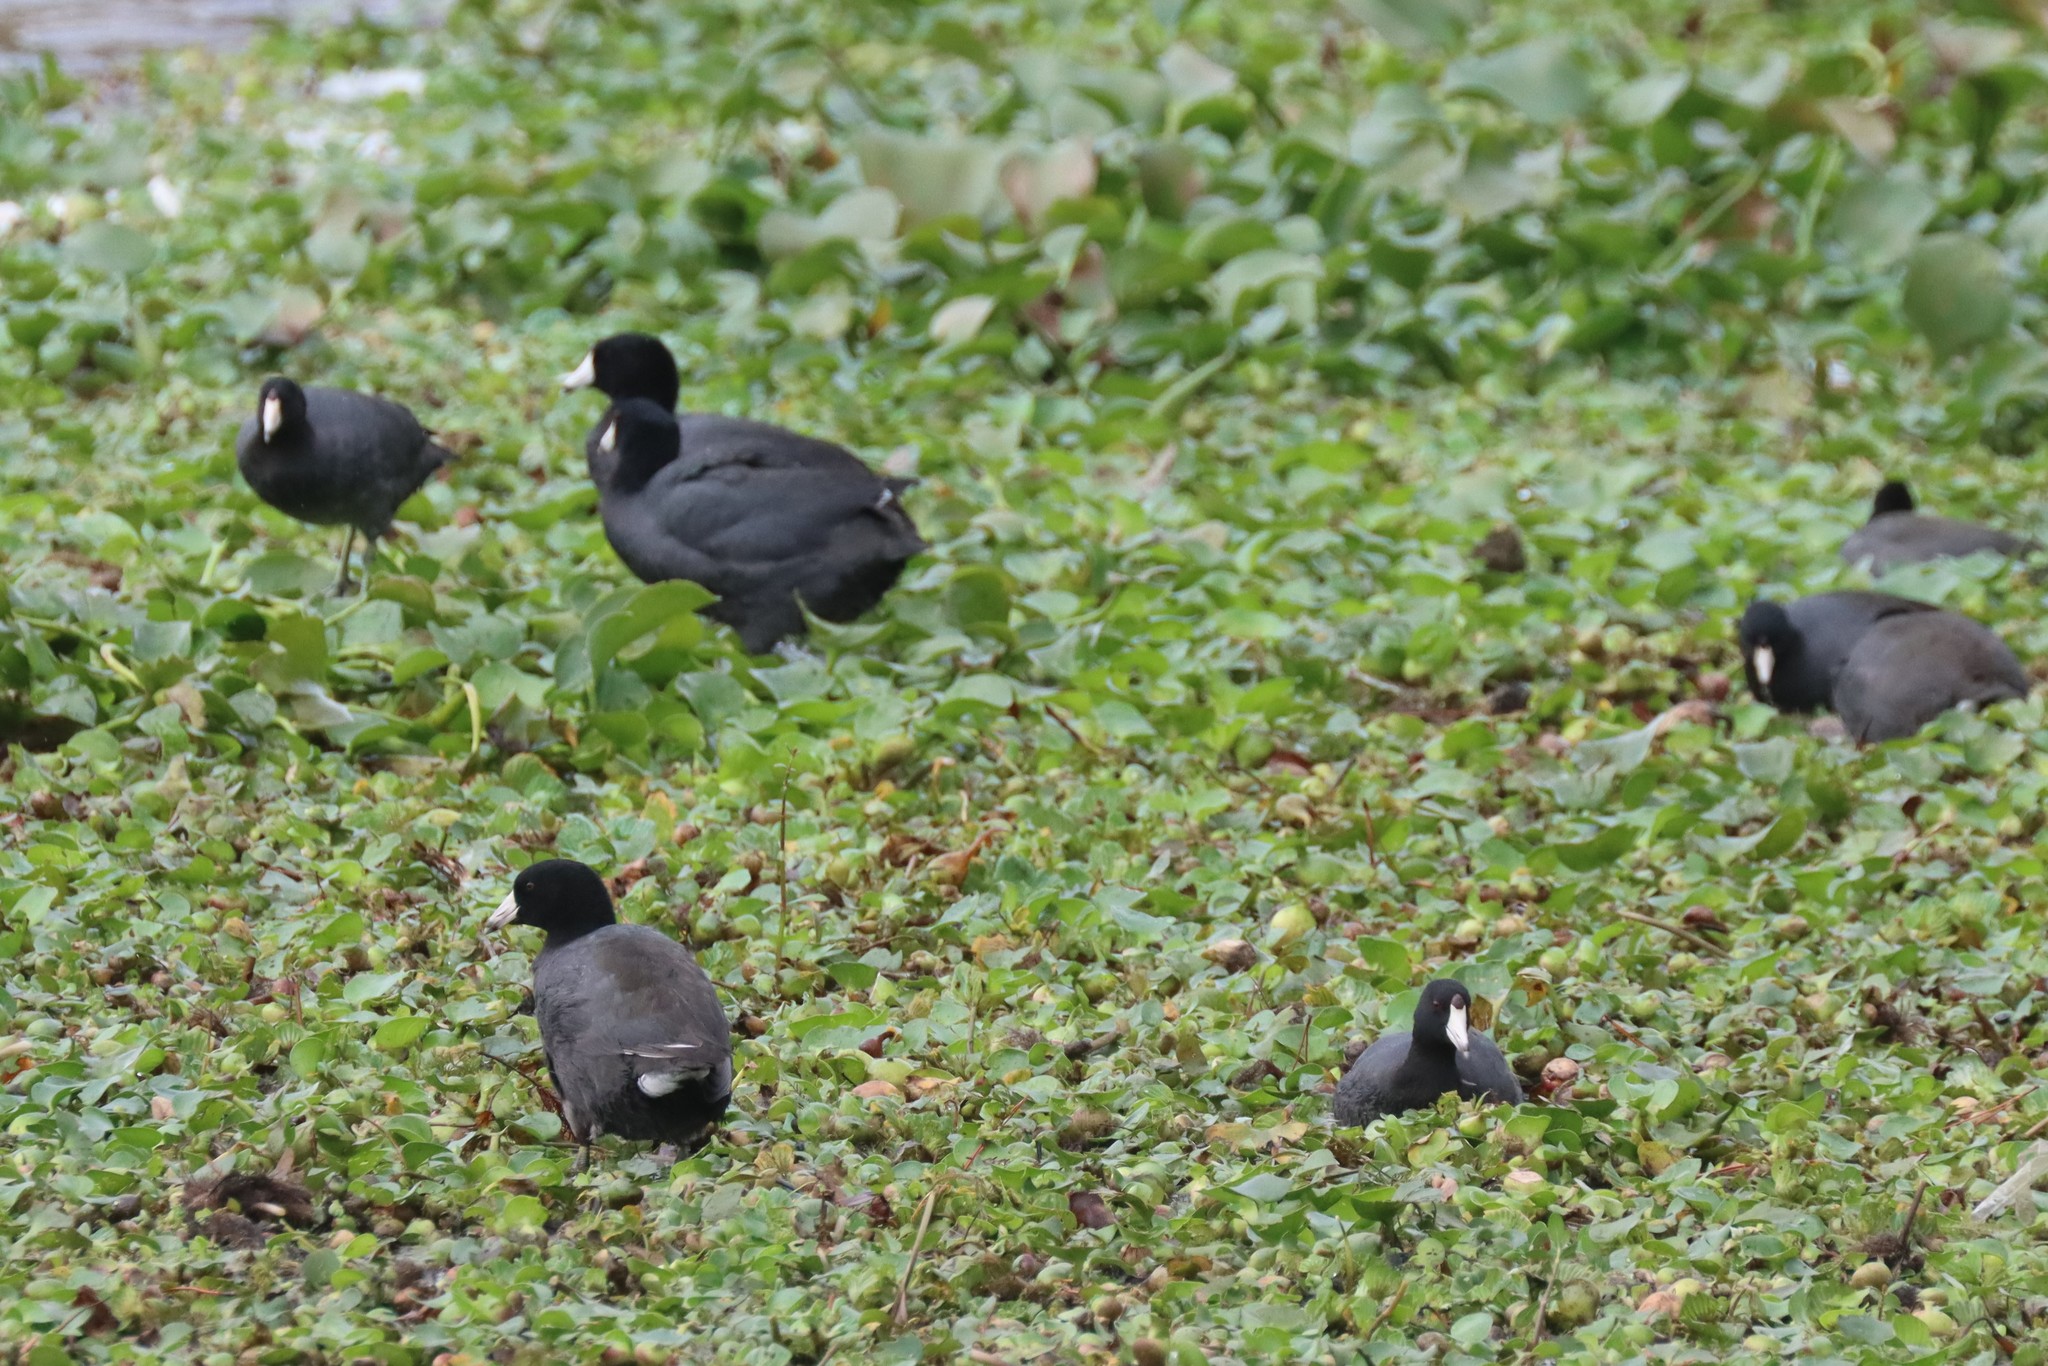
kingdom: Animalia
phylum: Chordata
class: Aves
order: Gruiformes
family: Rallidae
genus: Fulica
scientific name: Fulica americana
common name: American coot
